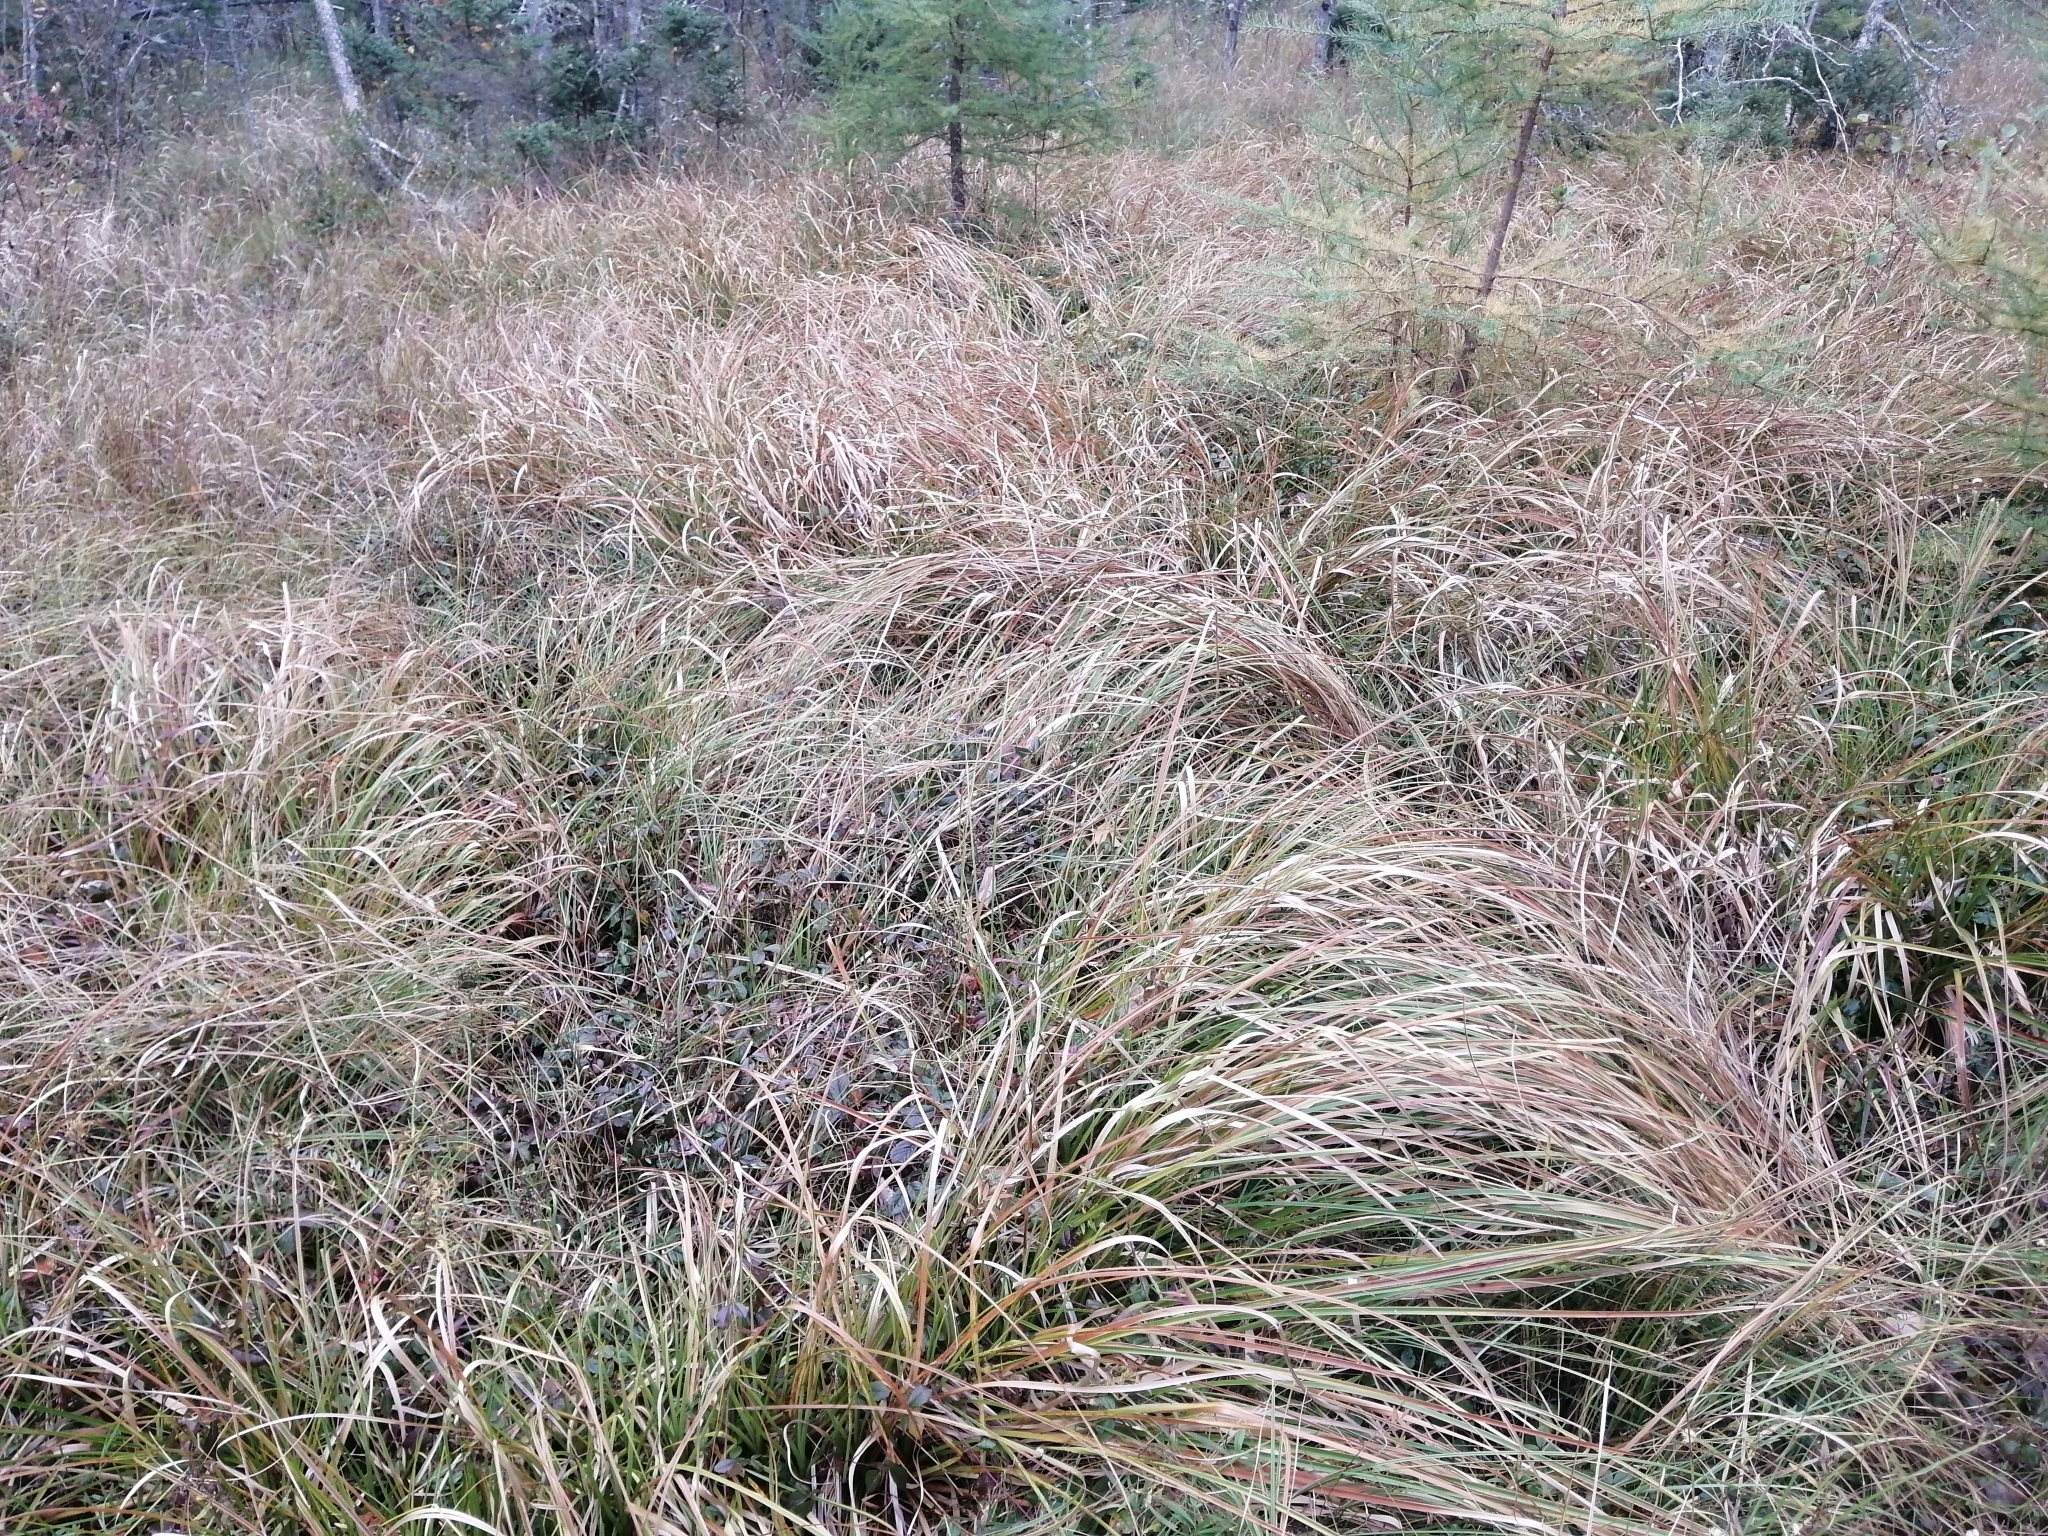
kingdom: Plantae
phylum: Tracheophyta
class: Liliopsida
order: Poales
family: Cyperaceae
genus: Scirpus
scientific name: Scirpus longii
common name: Long's bulrush
